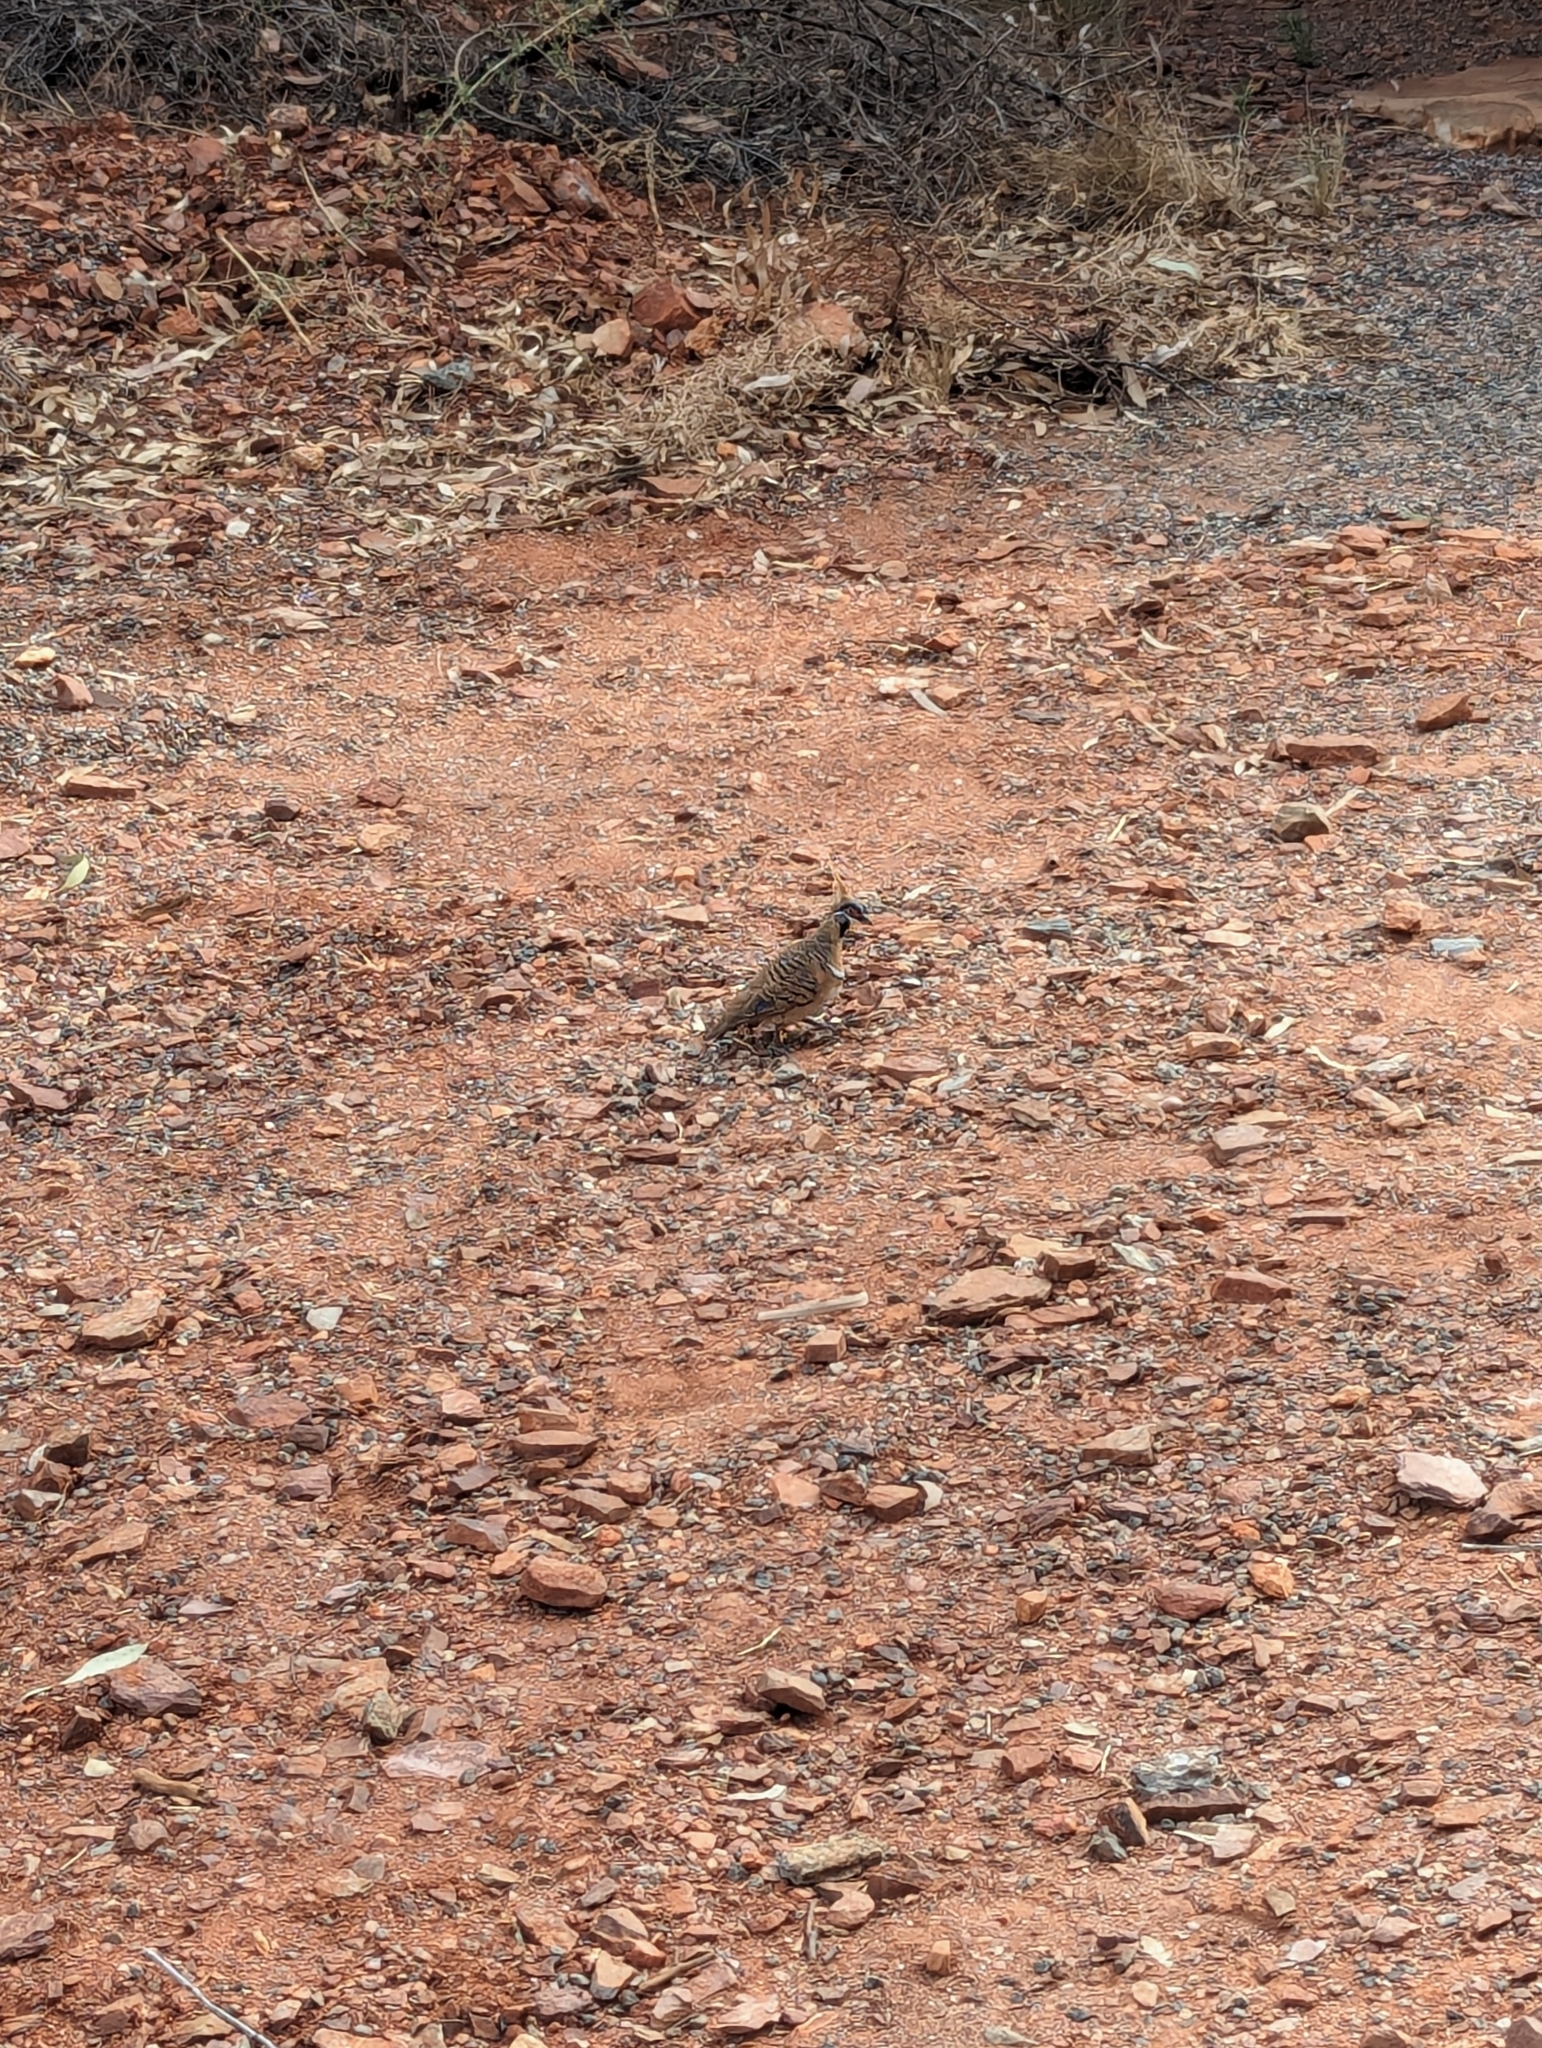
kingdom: Animalia
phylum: Chordata
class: Aves
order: Columbiformes
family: Columbidae
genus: Geophaps
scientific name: Geophaps plumifera
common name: Spinifex pigeon
